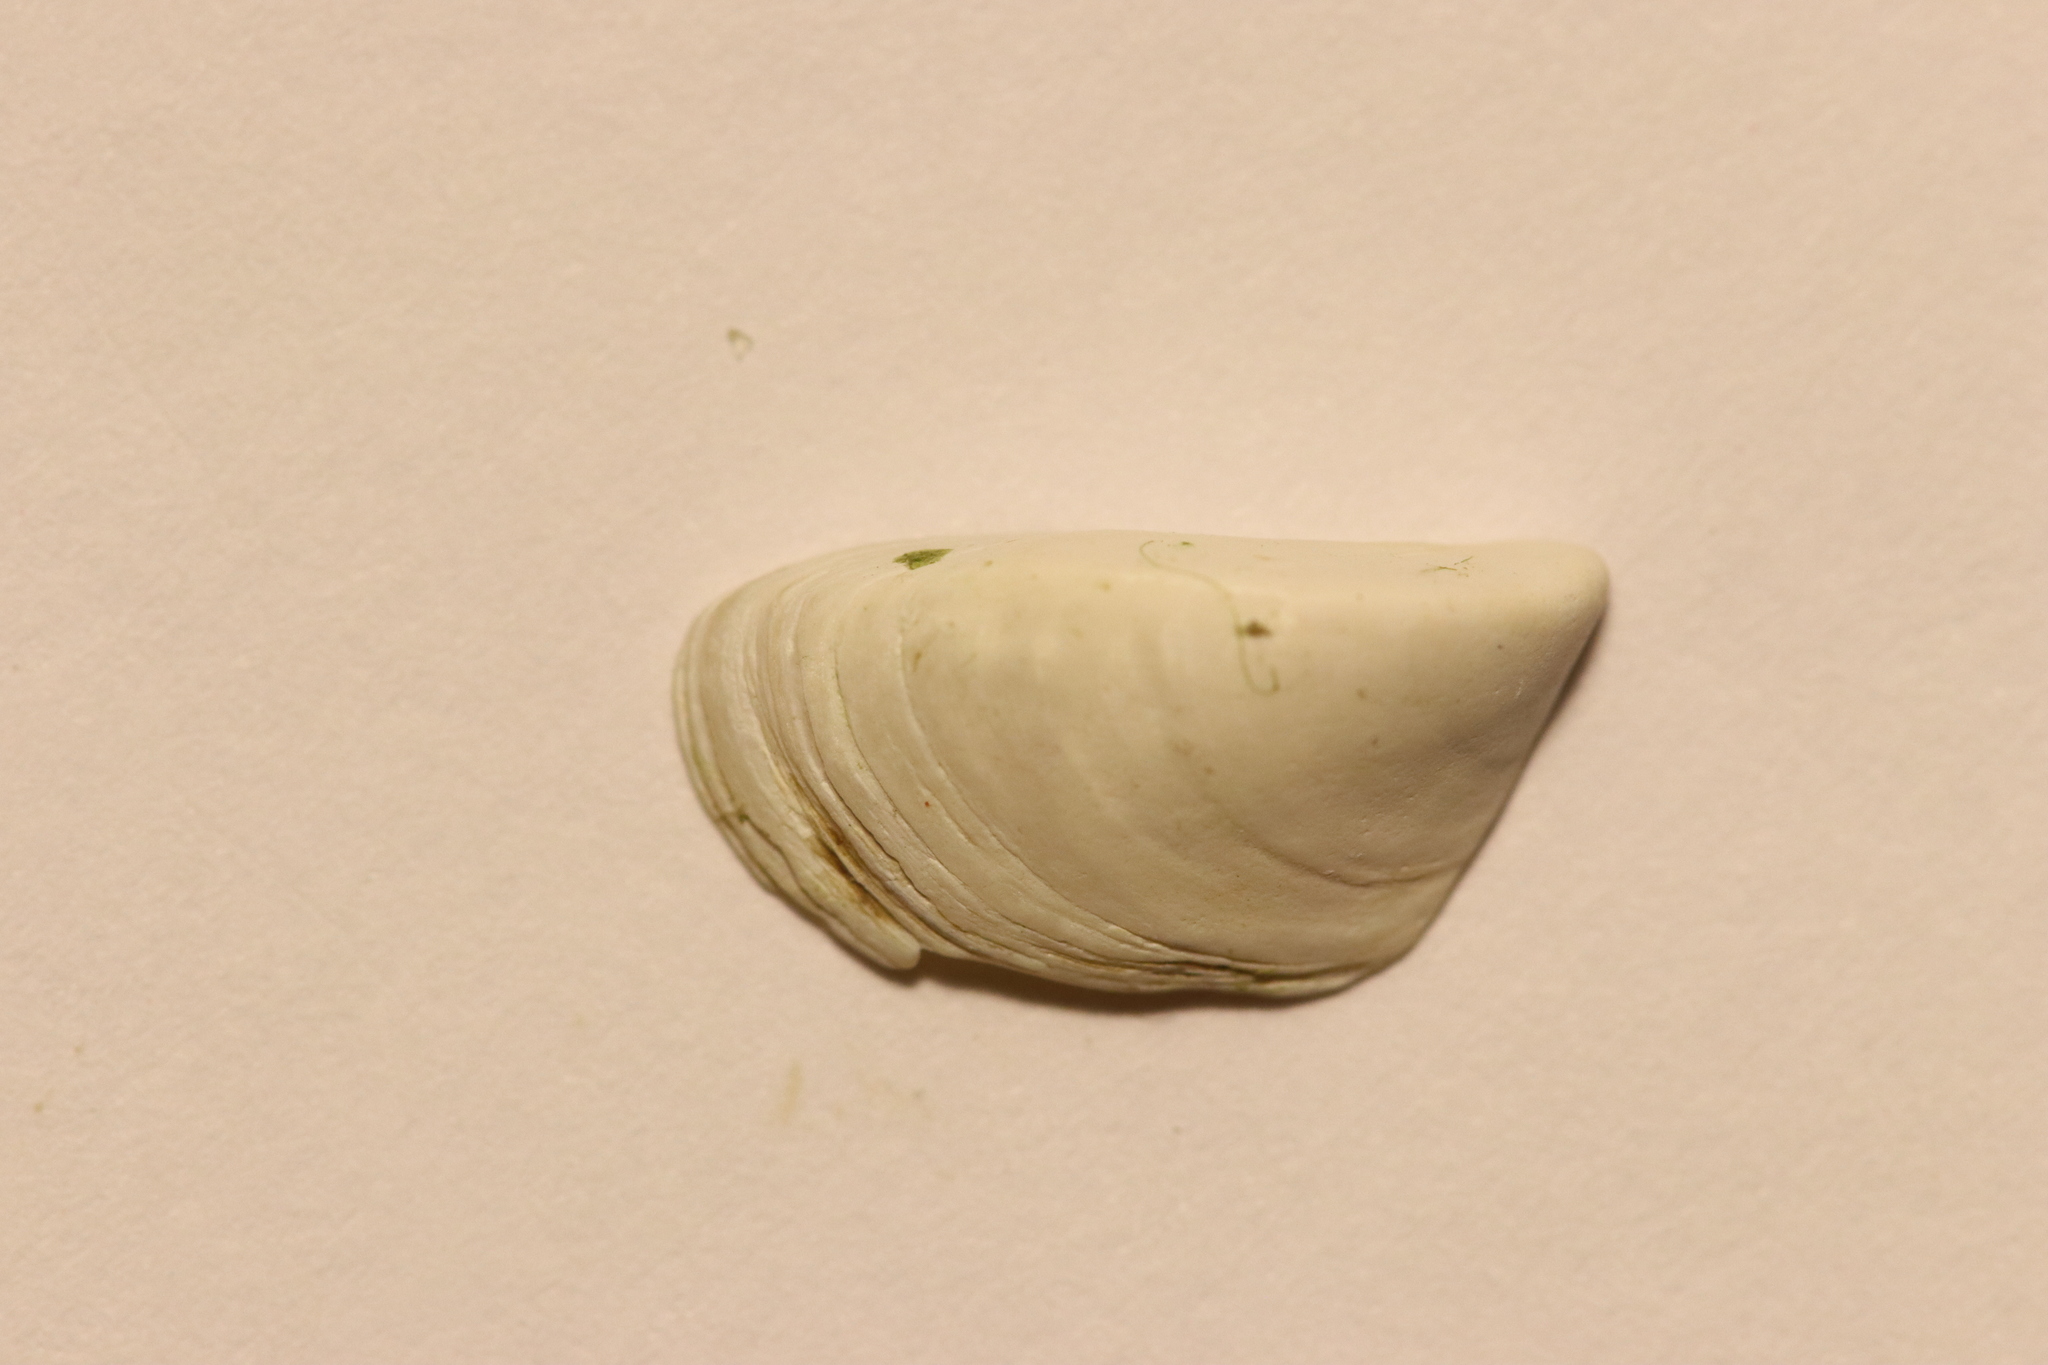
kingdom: Animalia
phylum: Mollusca
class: Bivalvia
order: Myida
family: Dreissenidae
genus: Dreissena
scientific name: Dreissena polymorpha
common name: Zebra mussel
